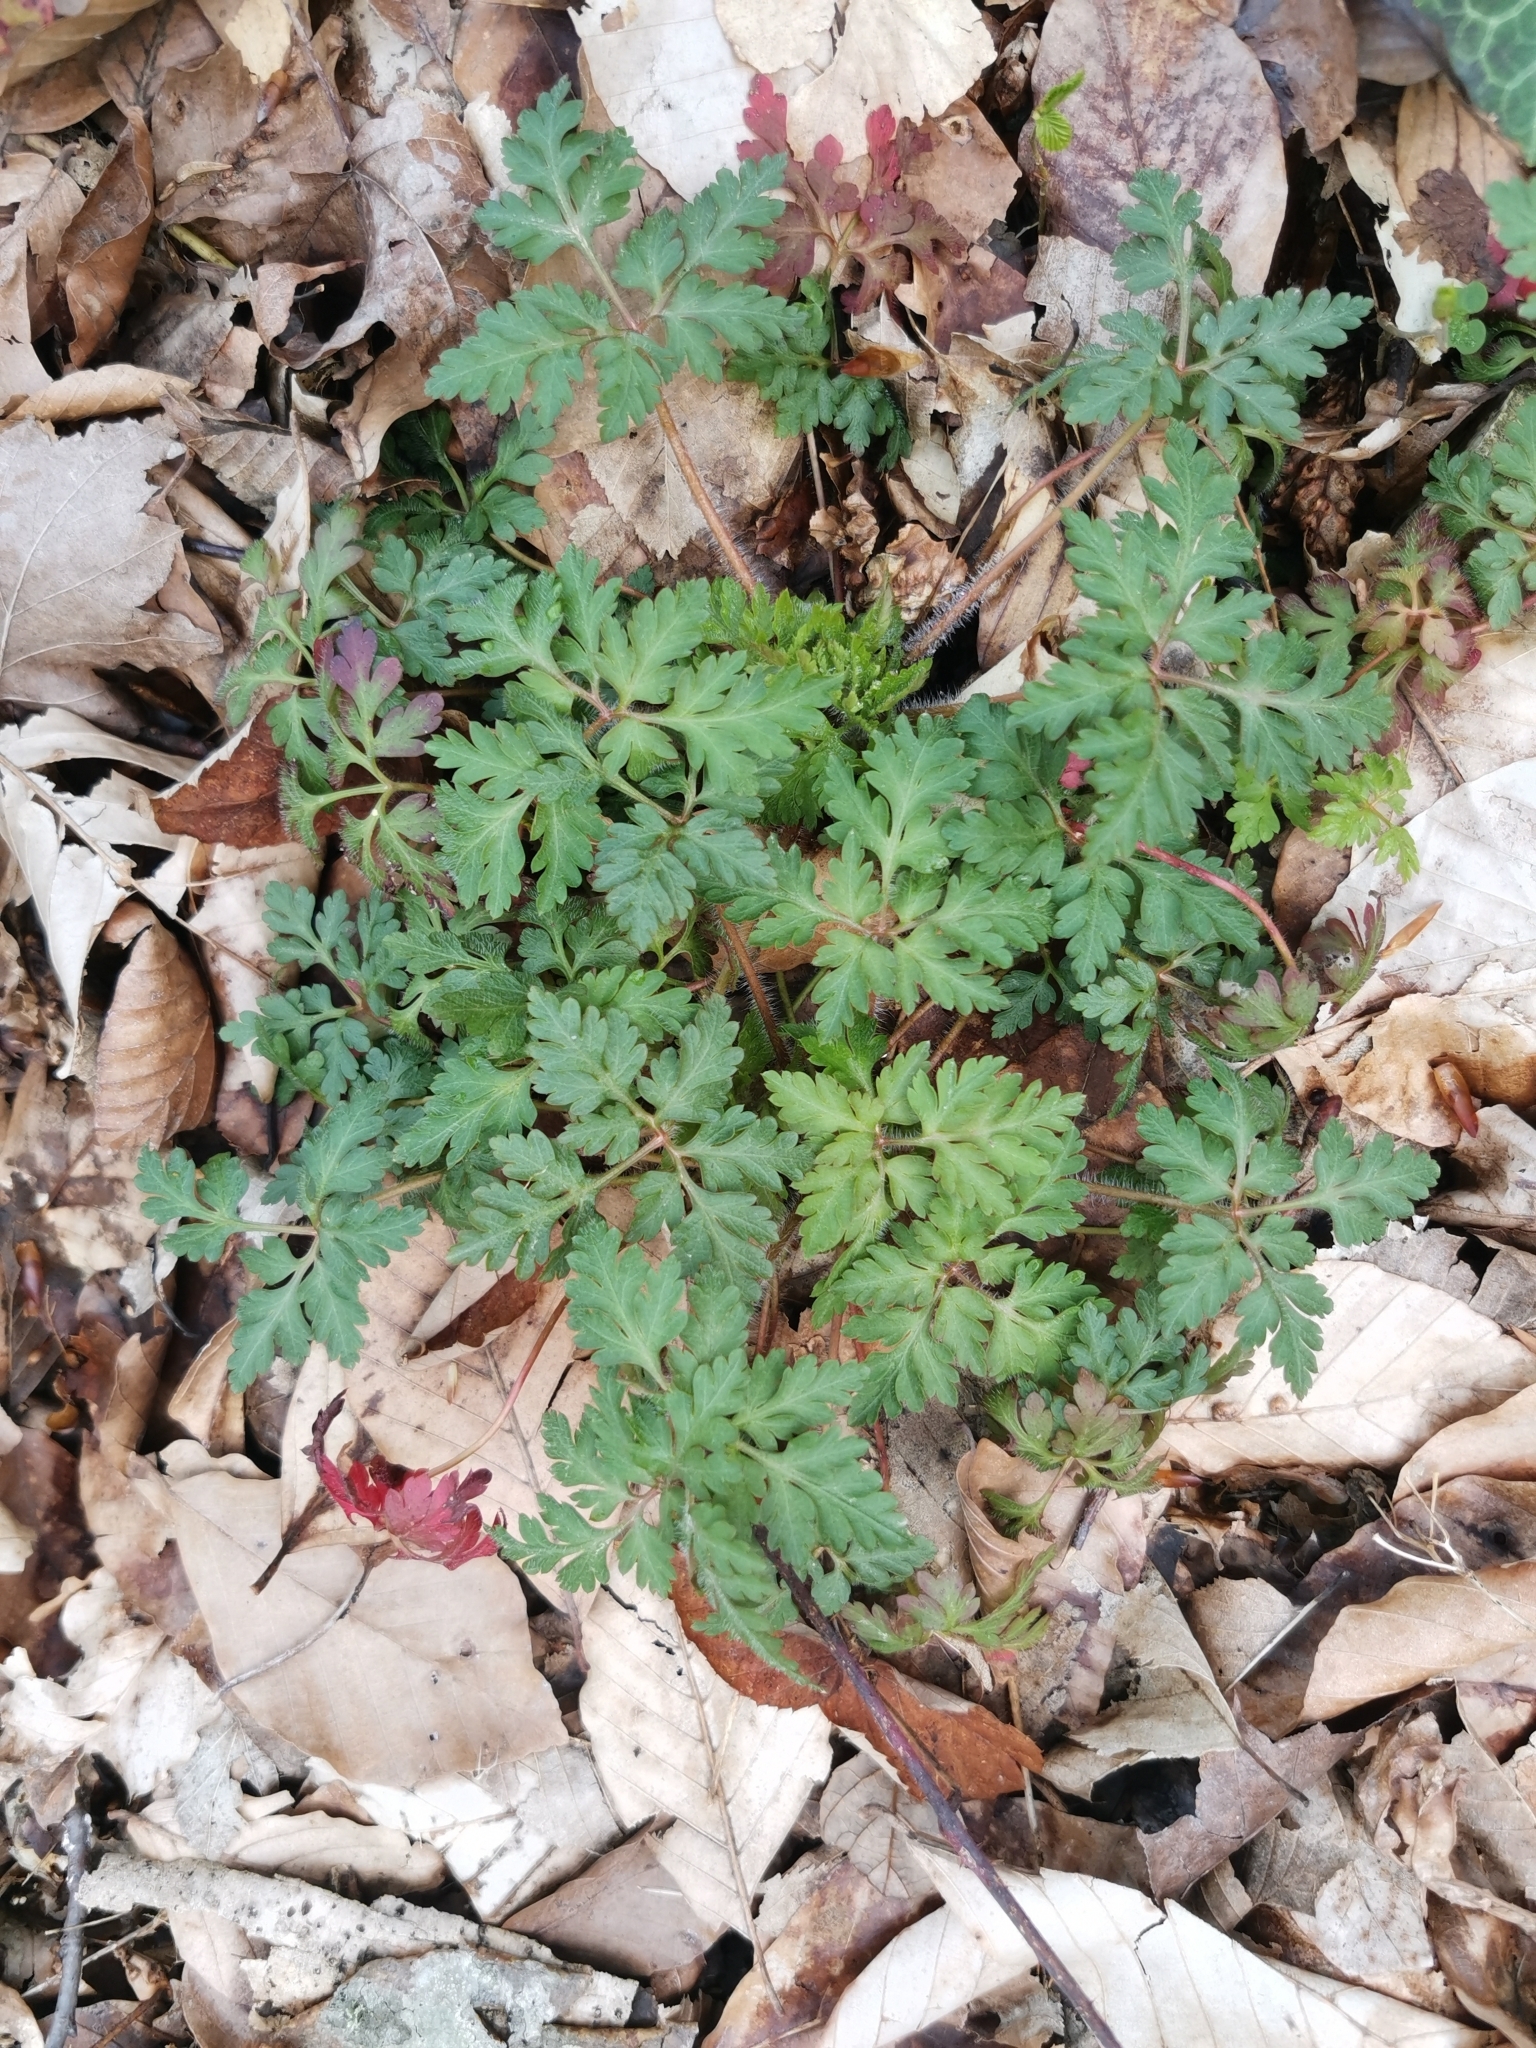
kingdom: Plantae
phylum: Tracheophyta
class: Magnoliopsida
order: Geraniales
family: Geraniaceae
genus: Geranium
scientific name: Geranium robertianum
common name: Herb-robert
